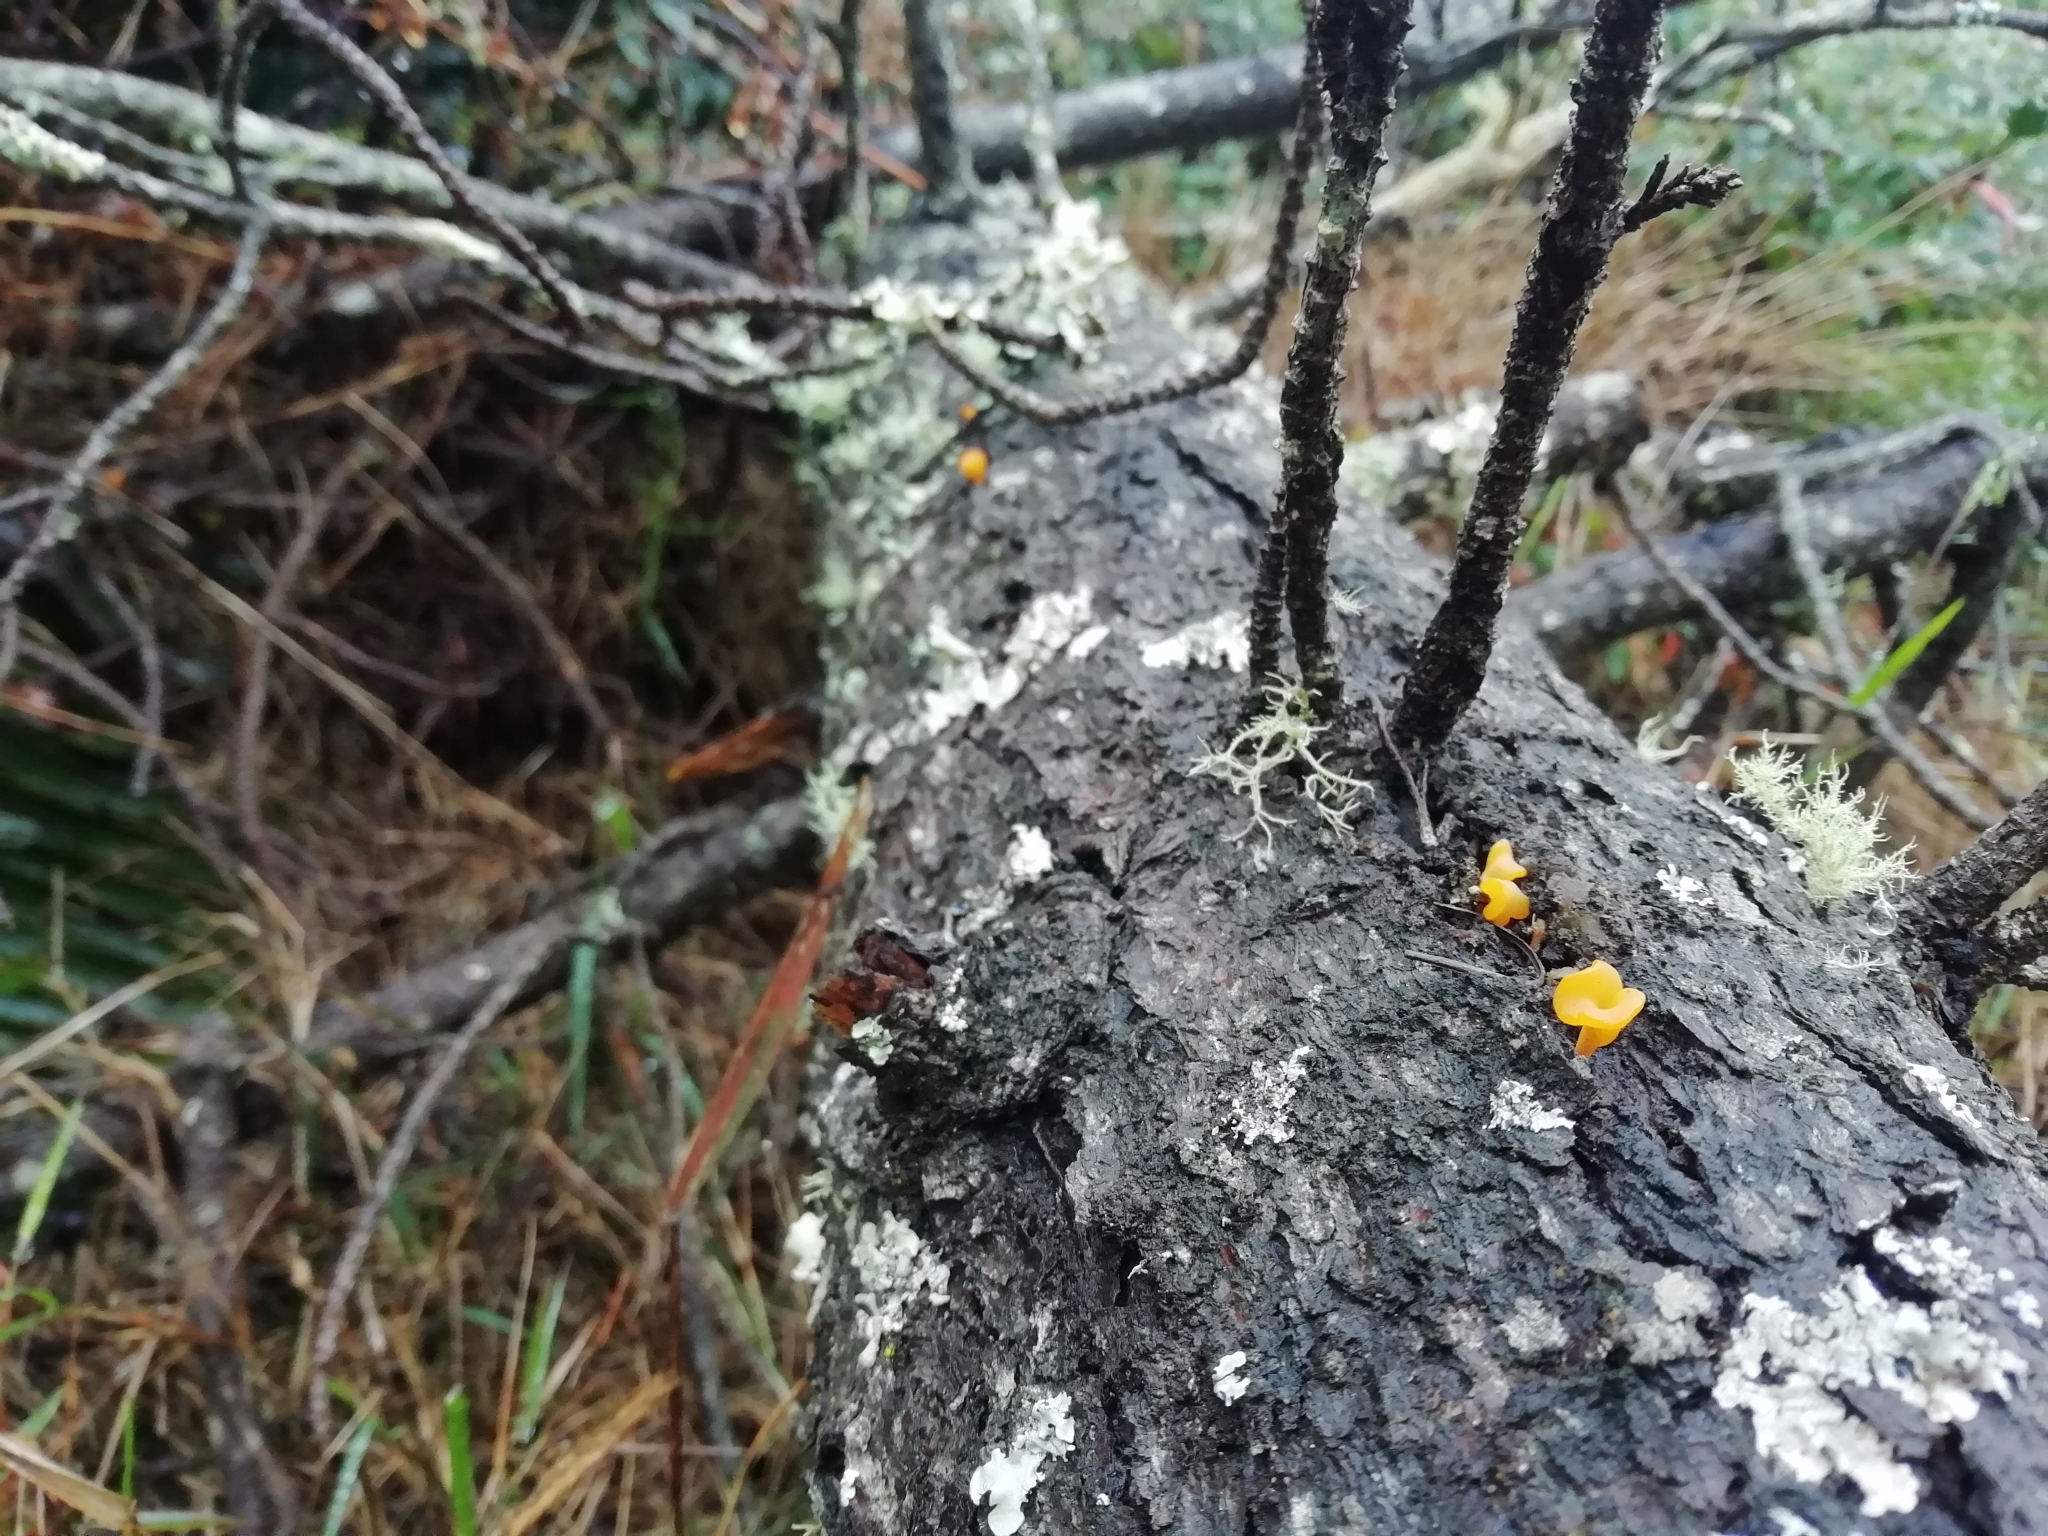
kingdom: Fungi
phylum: Basidiomycota
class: Dacrymycetes
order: Dacrymycetales
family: Dacrymycetaceae
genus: Dacrymyces
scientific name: Dacrymyces spathularius
